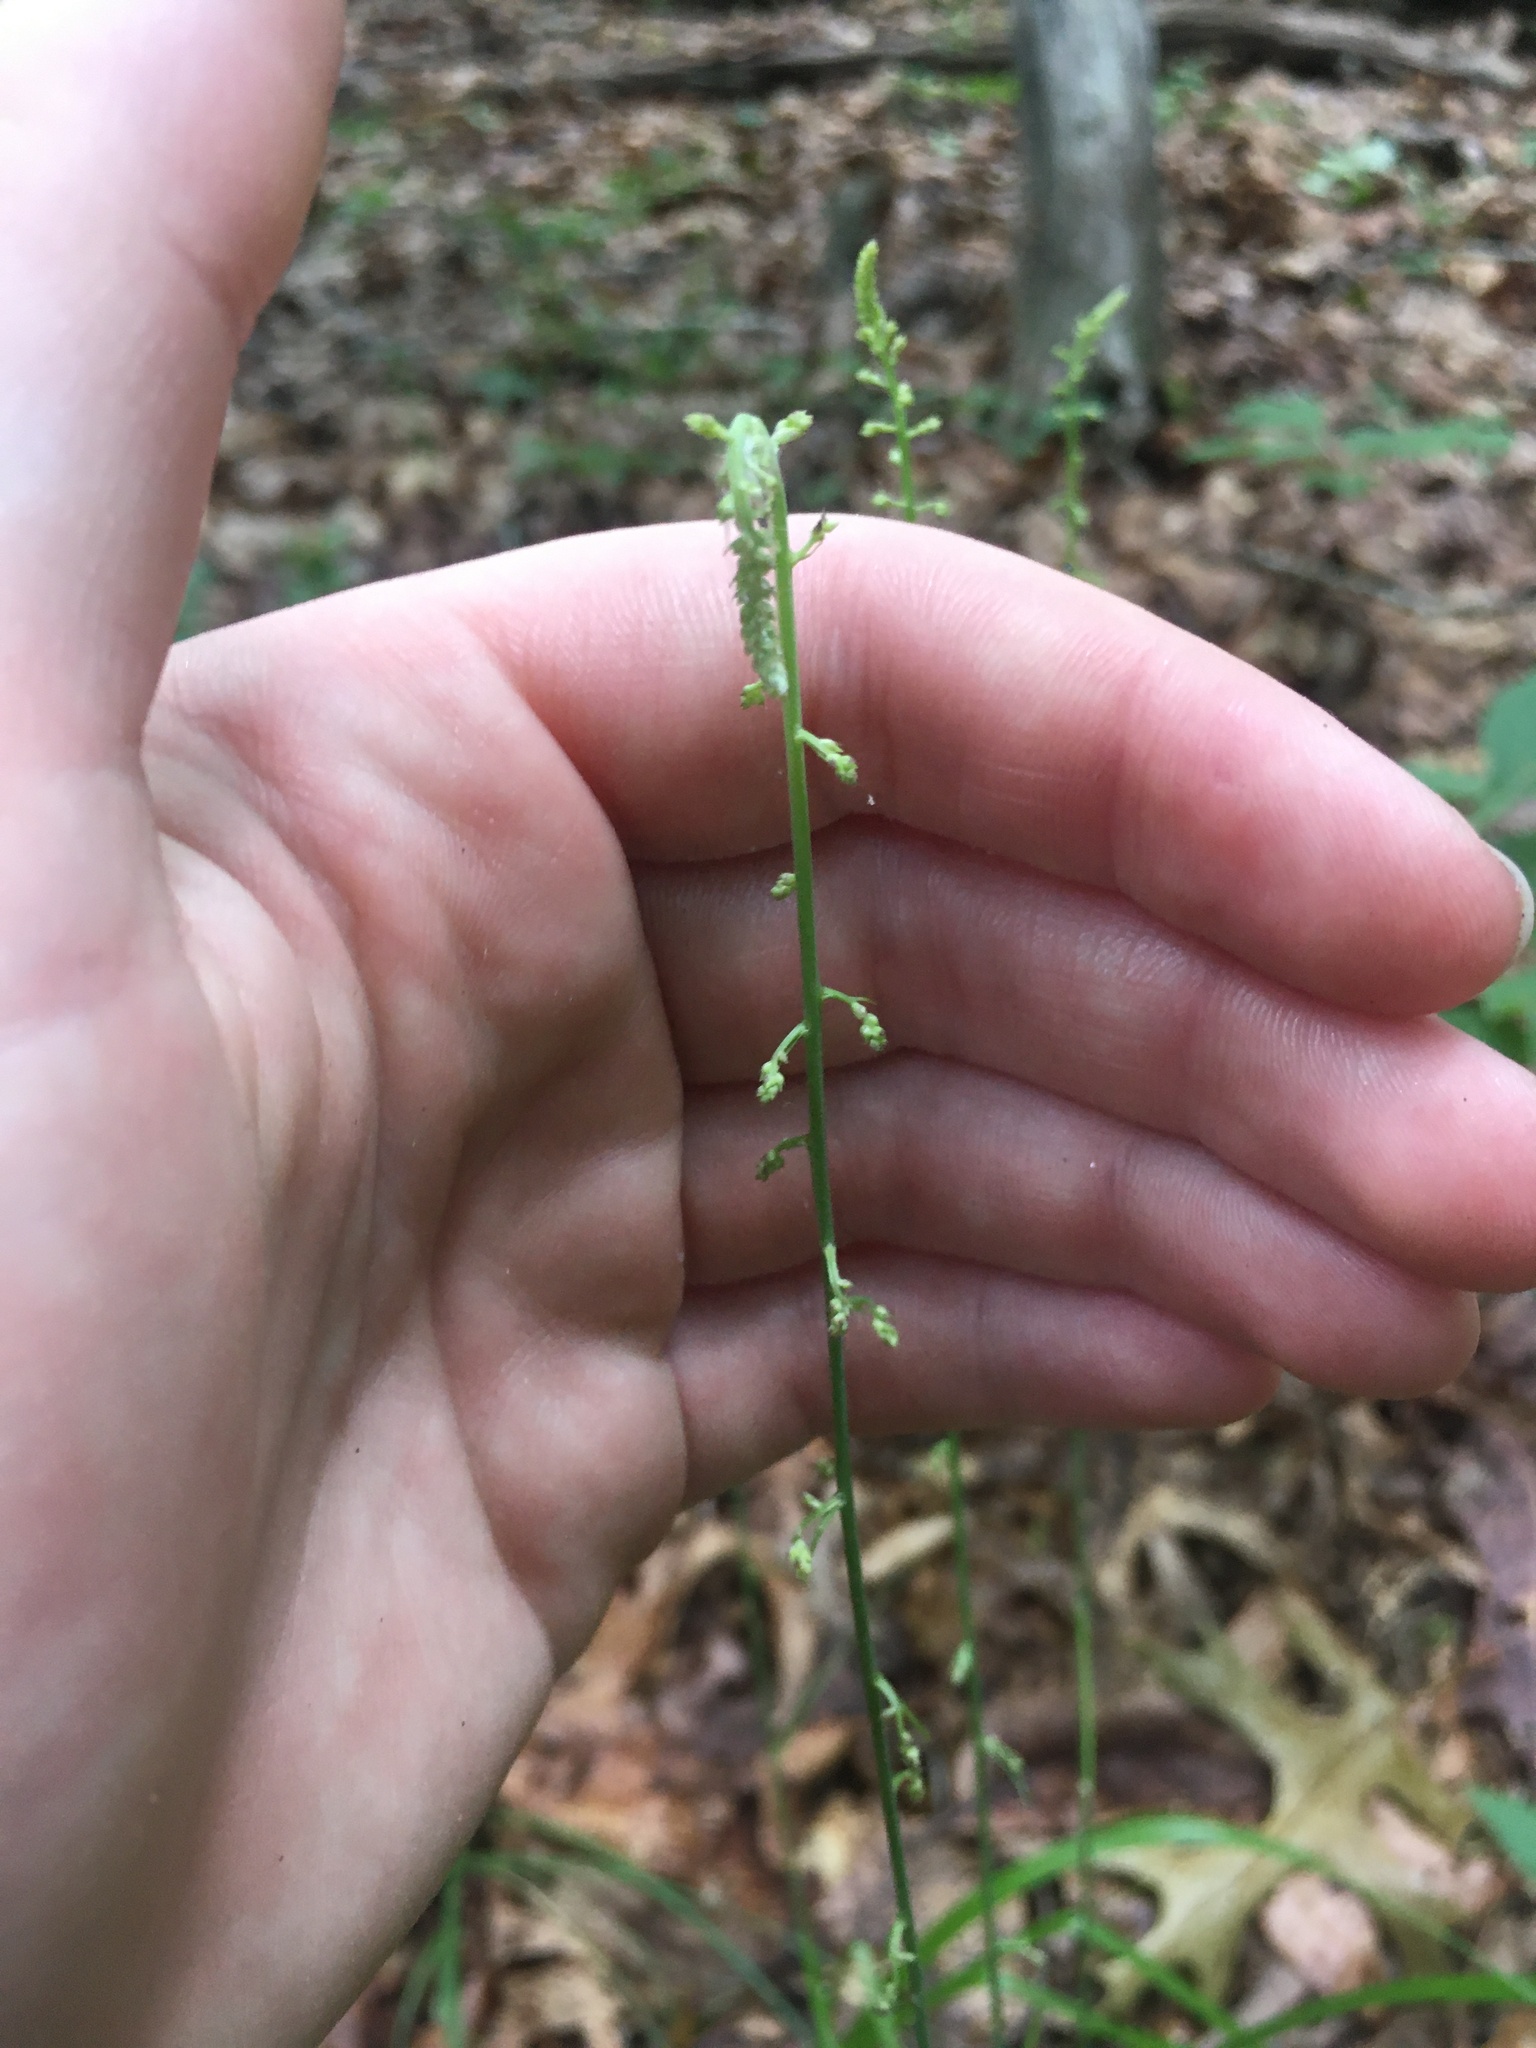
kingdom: Plantae
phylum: Tracheophyta
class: Liliopsida
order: Liliales
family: Melanthiaceae
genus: Stenanthium
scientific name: Stenanthium gramineum
